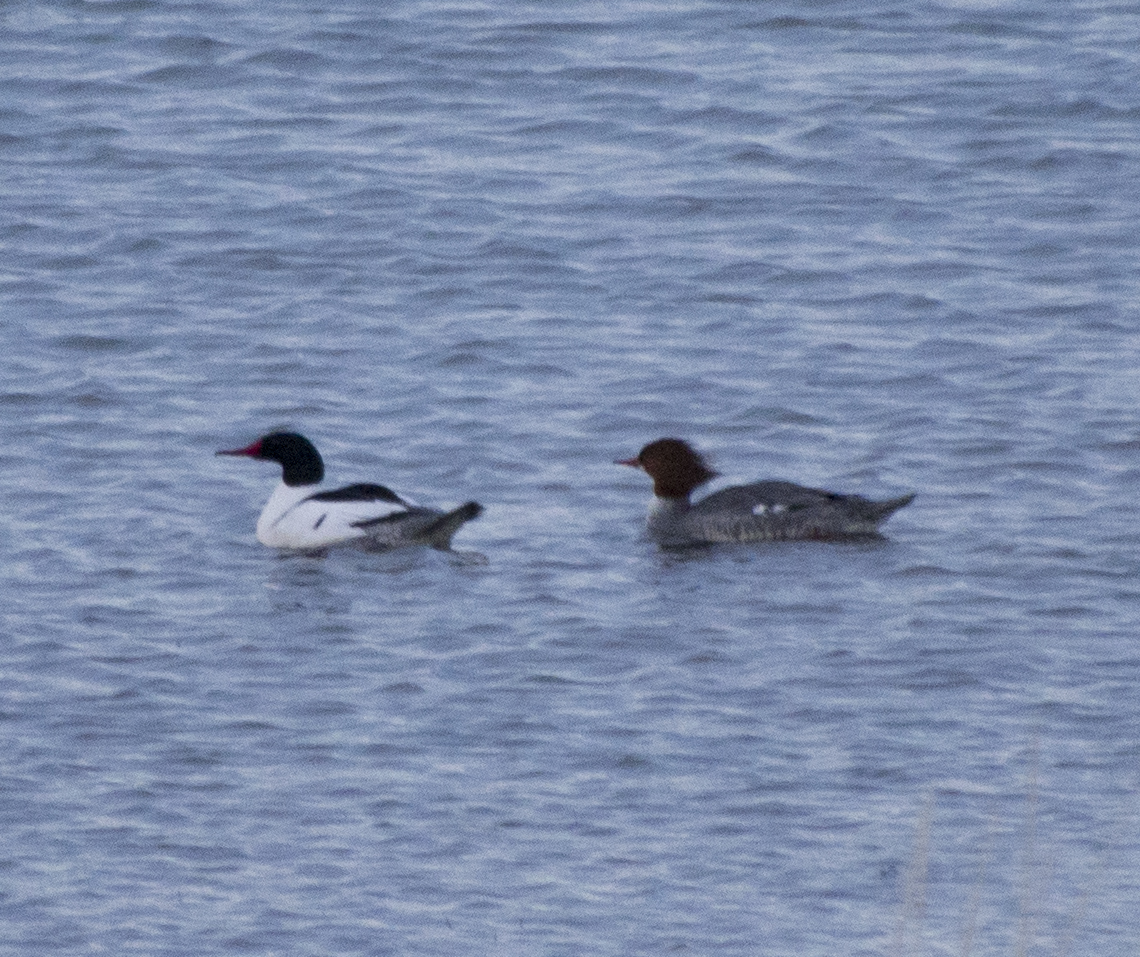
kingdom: Animalia
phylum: Chordata
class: Aves
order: Anseriformes
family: Anatidae
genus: Mergus
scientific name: Mergus merganser
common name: Common merganser
